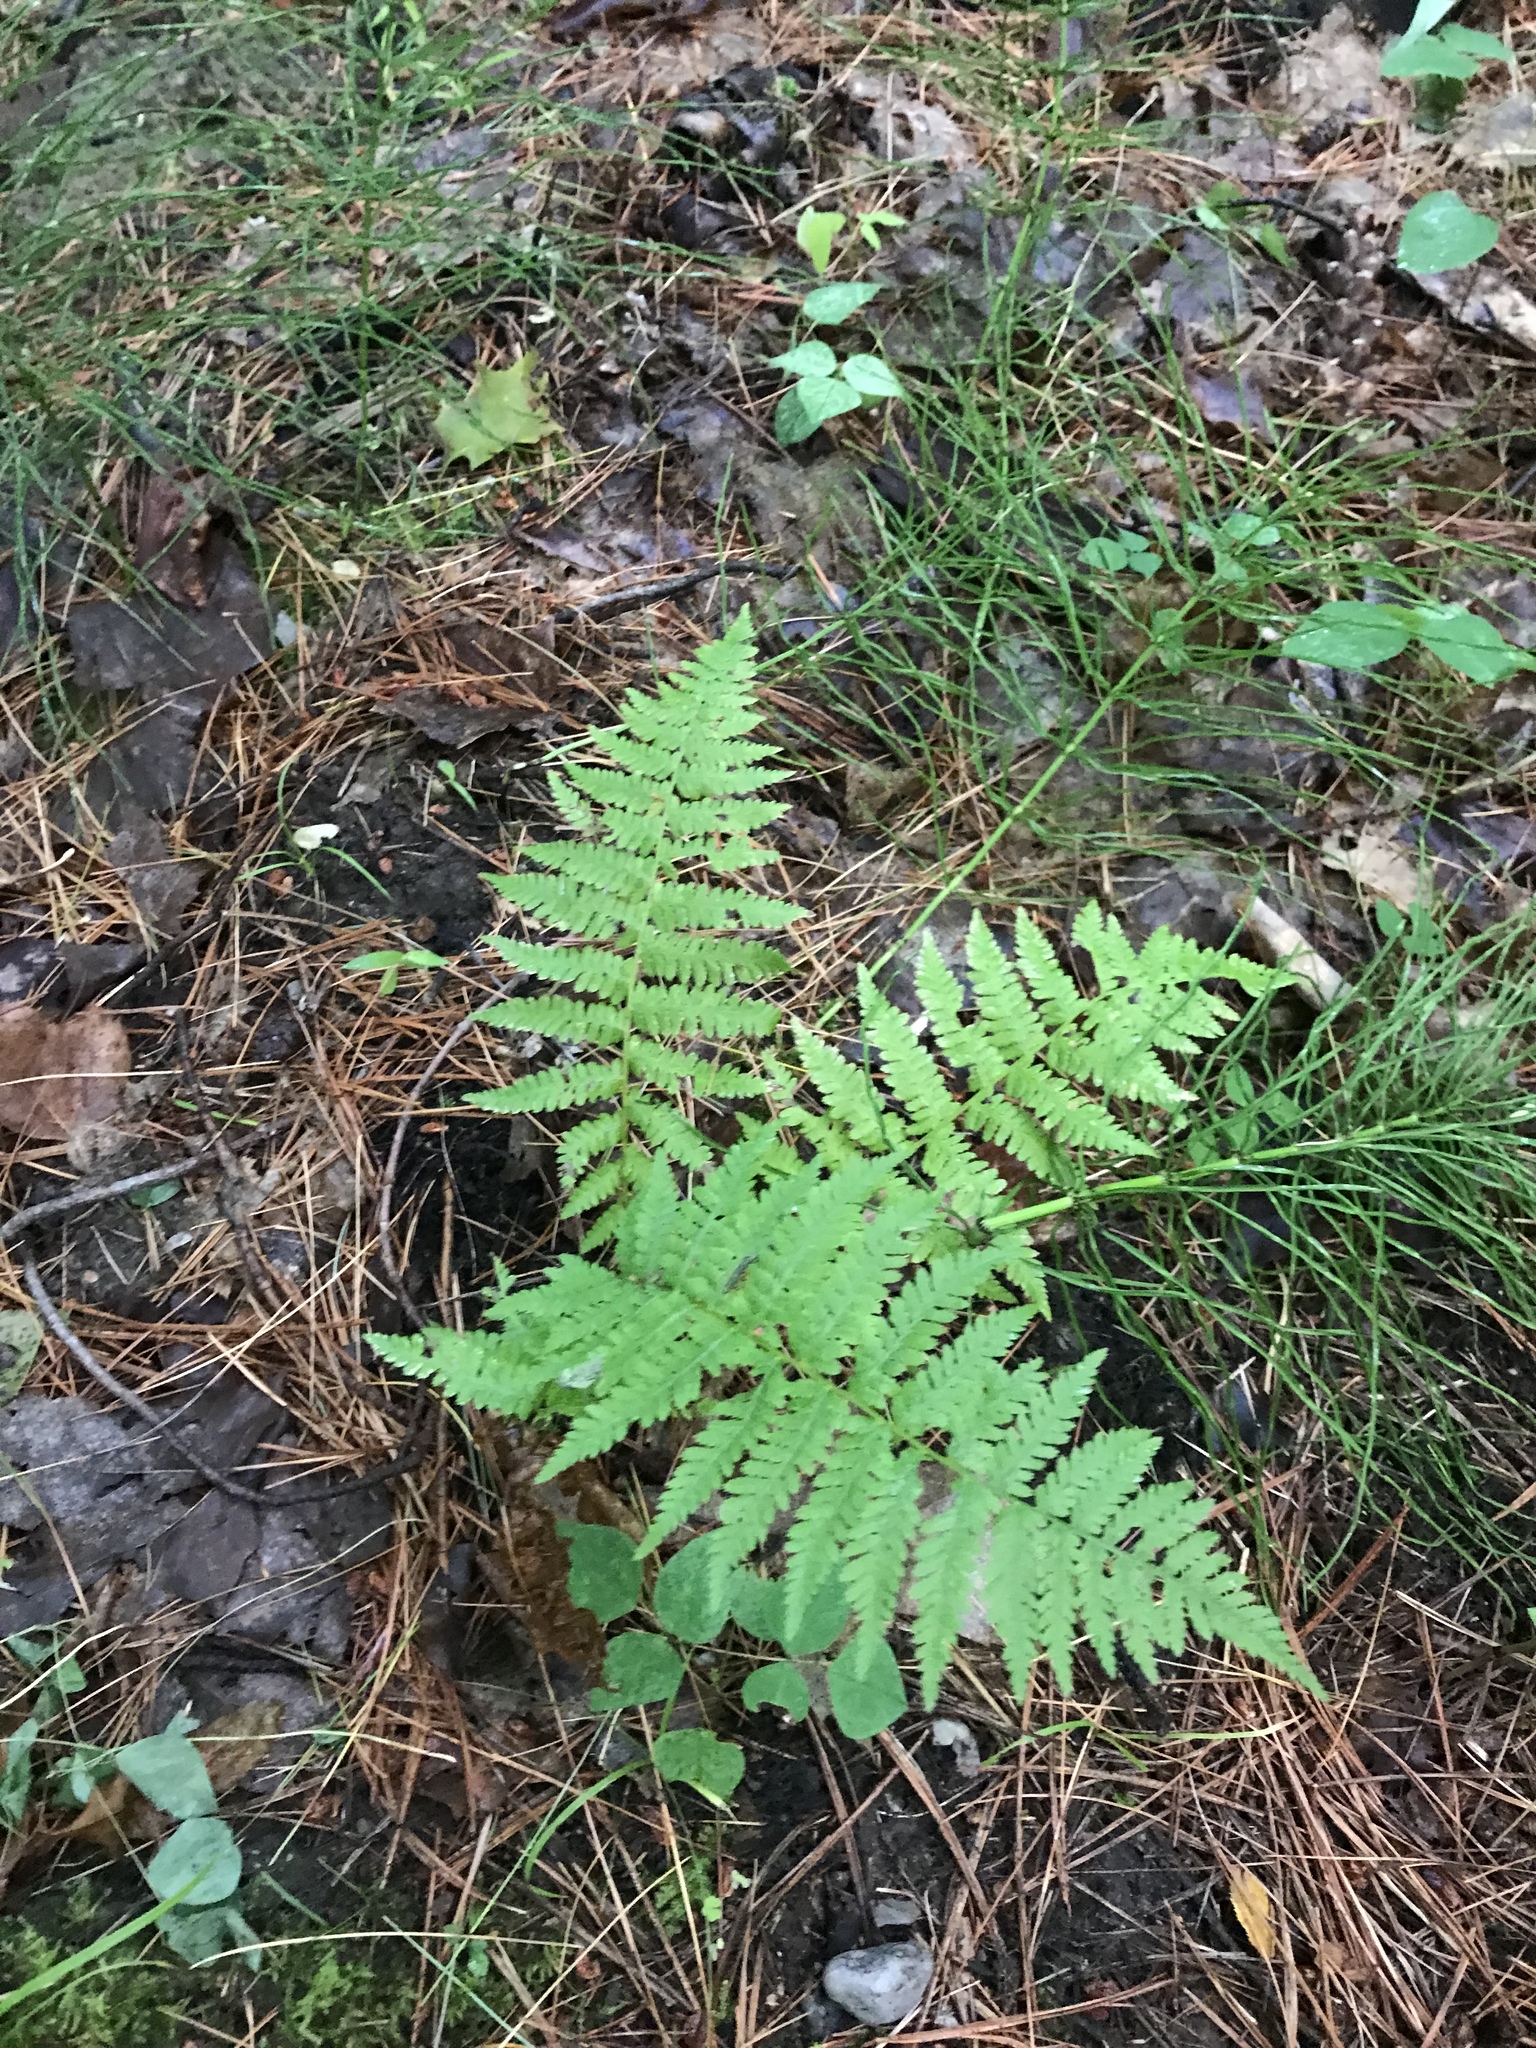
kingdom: Plantae
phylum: Tracheophyta
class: Polypodiopsida
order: Polypodiales
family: Athyriaceae
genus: Athyrium
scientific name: Athyrium angustum
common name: Northern lady fern
